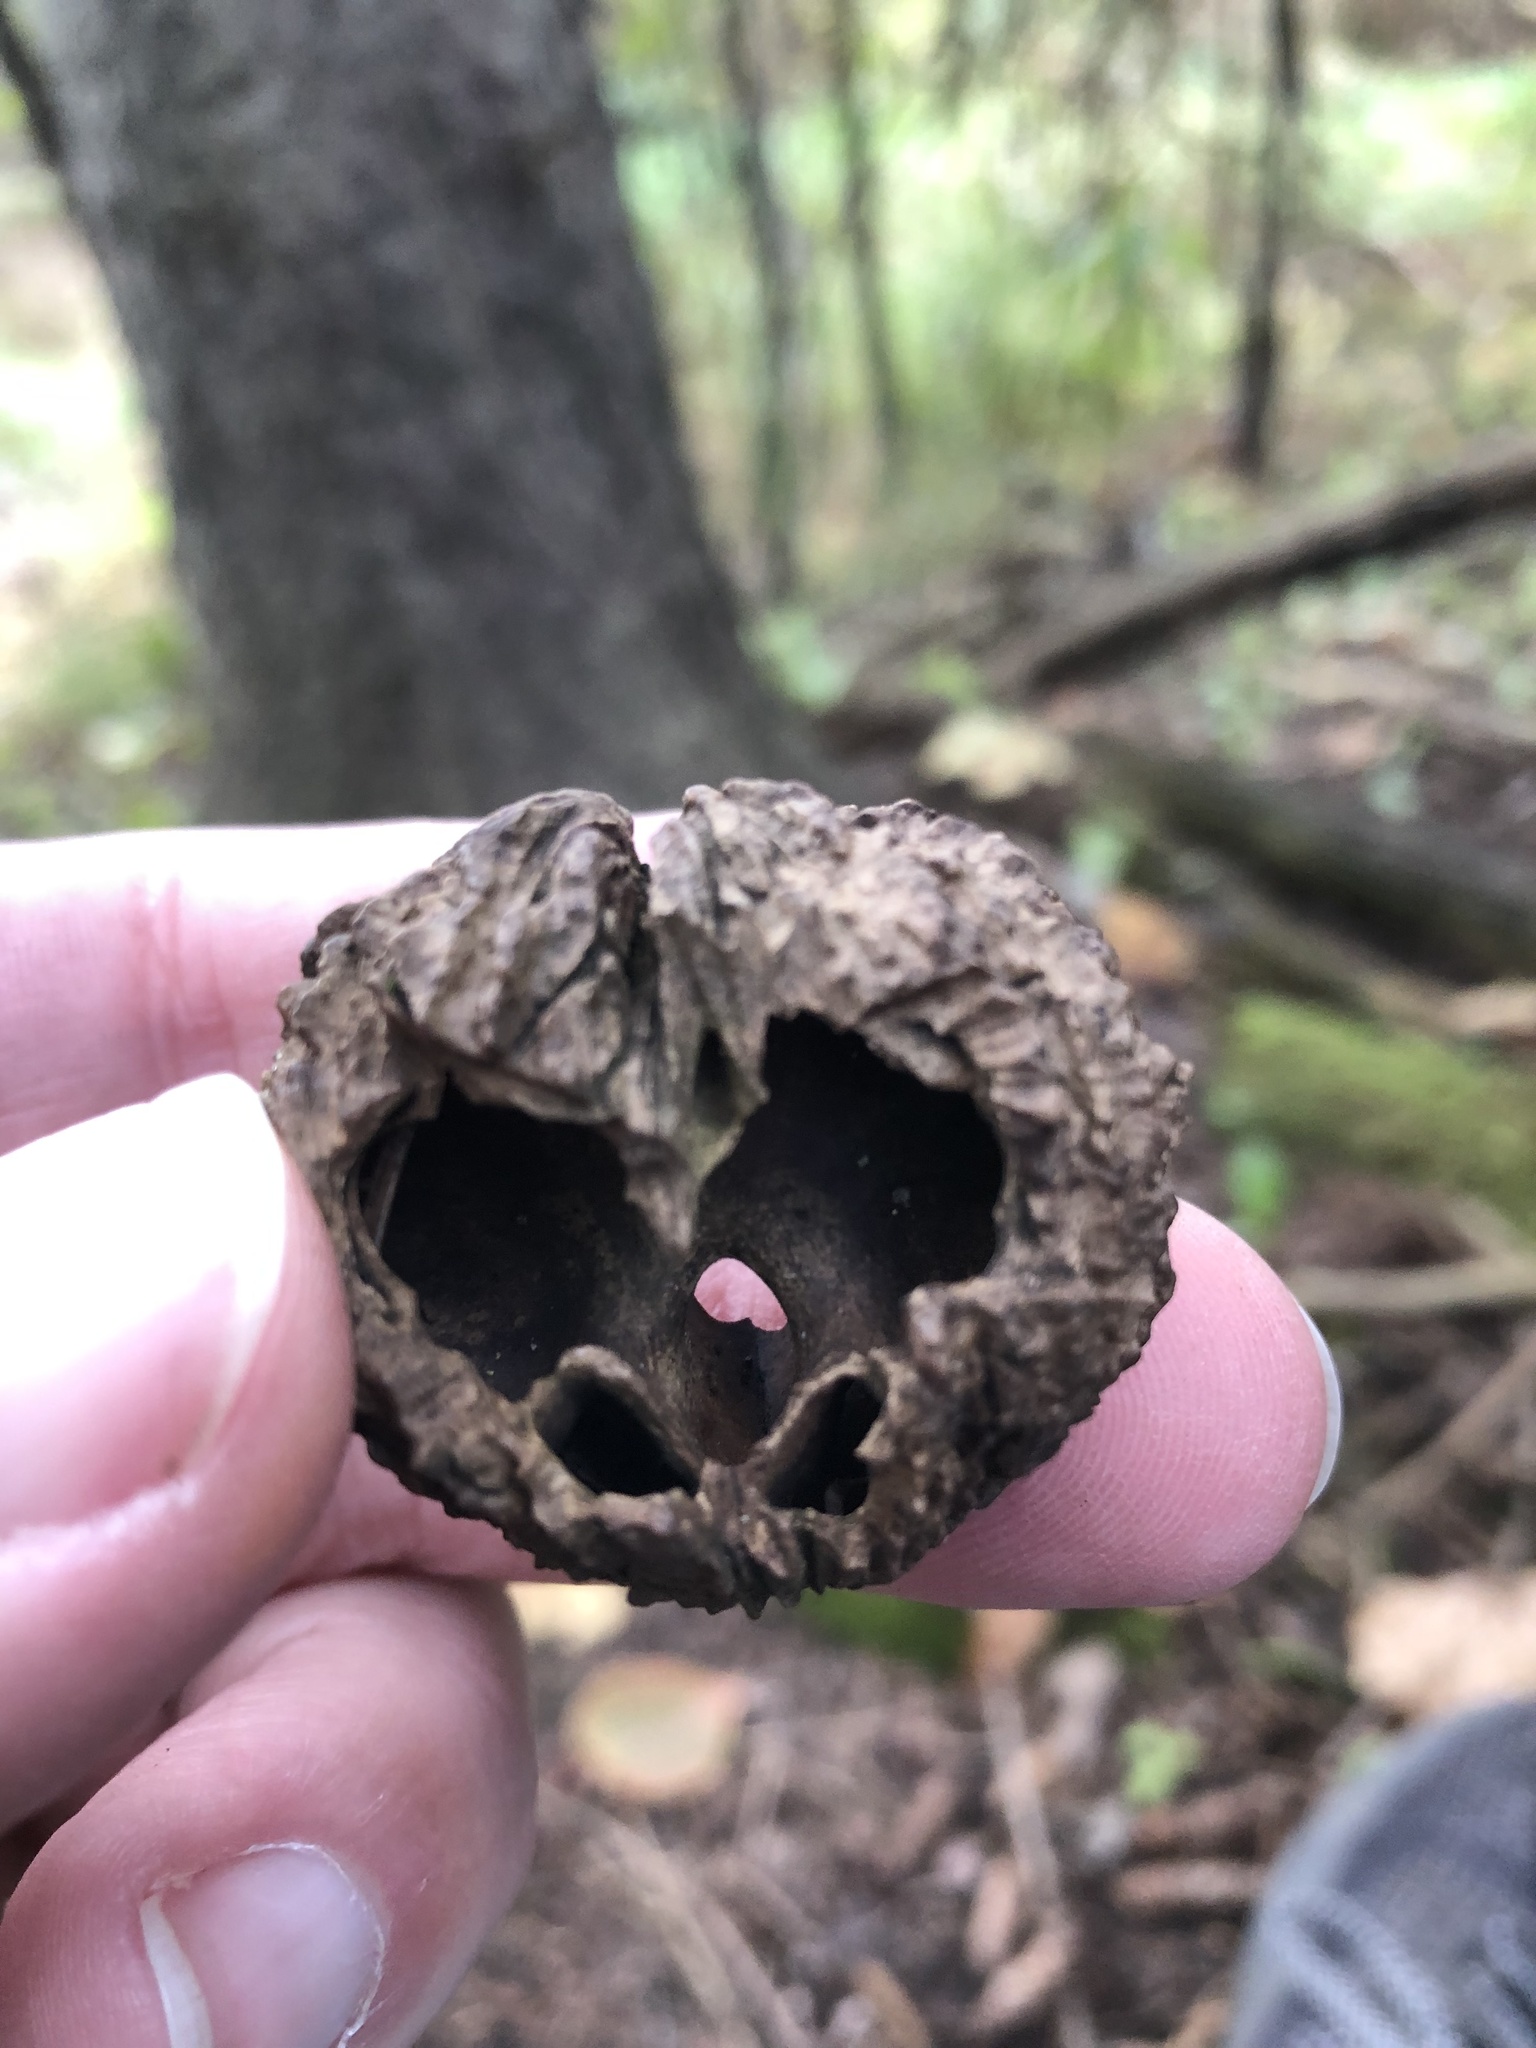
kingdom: Plantae
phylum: Tracheophyta
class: Magnoliopsida
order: Fagales
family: Juglandaceae
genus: Juglans
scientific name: Juglans nigra
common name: Black walnut
